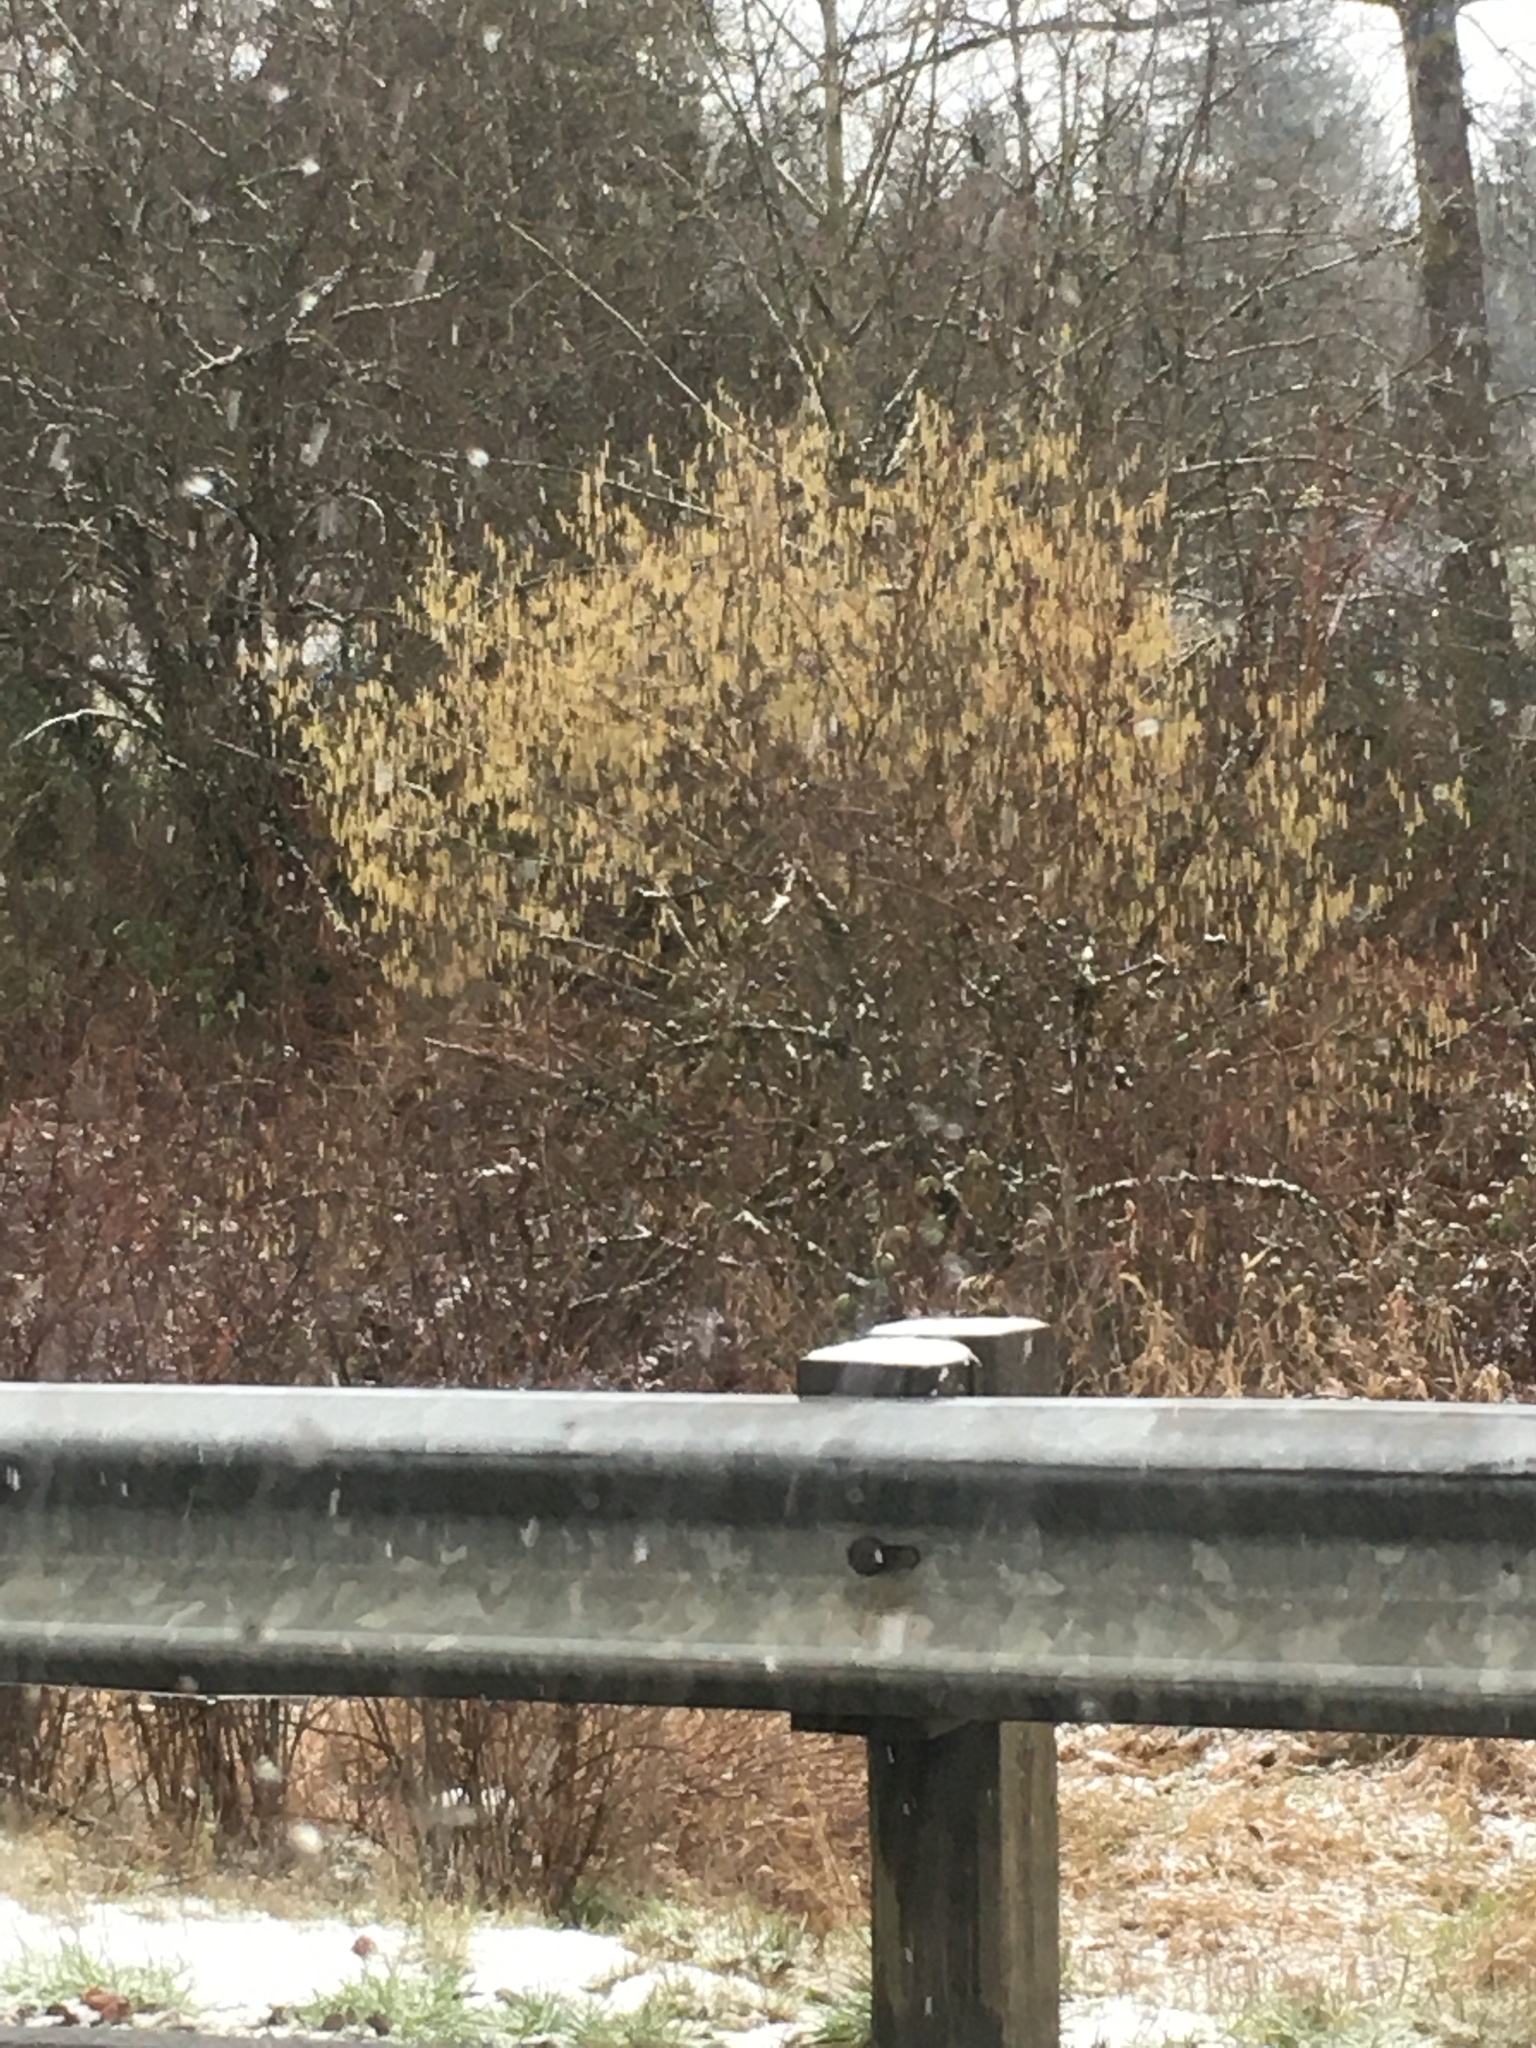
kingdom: Plantae
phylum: Tracheophyta
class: Magnoliopsida
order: Fagales
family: Betulaceae
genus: Corylus
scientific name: Corylus cornuta
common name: Beaked hazel
